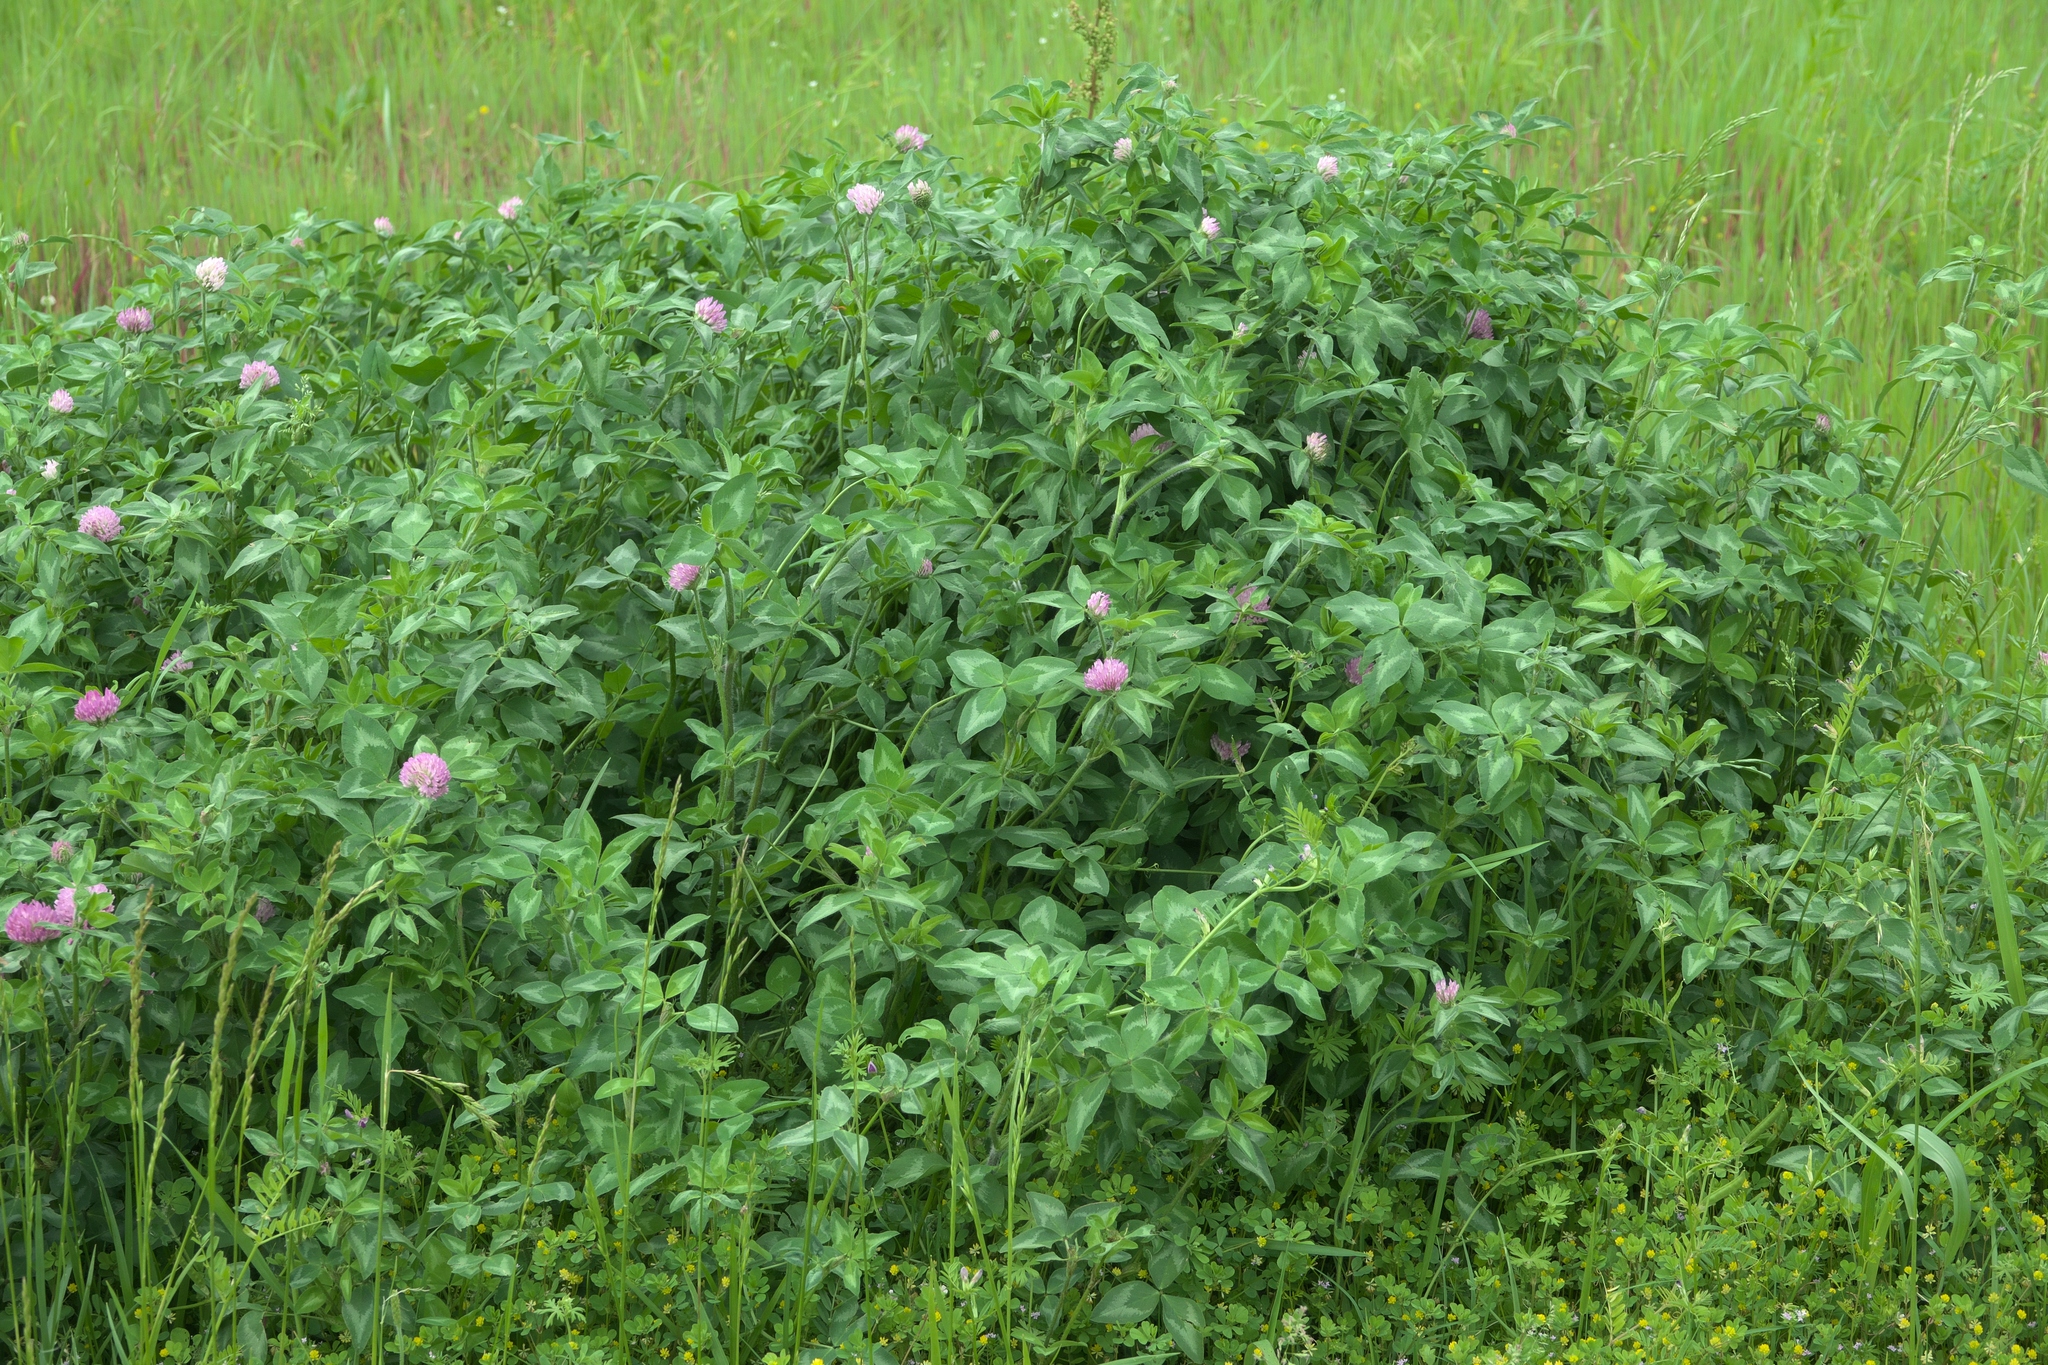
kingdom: Plantae
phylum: Tracheophyta
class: Magnoliopsida
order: Fabales
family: Fabaceae
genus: Trifolium
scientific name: Trifolium pratense
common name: Red clover
